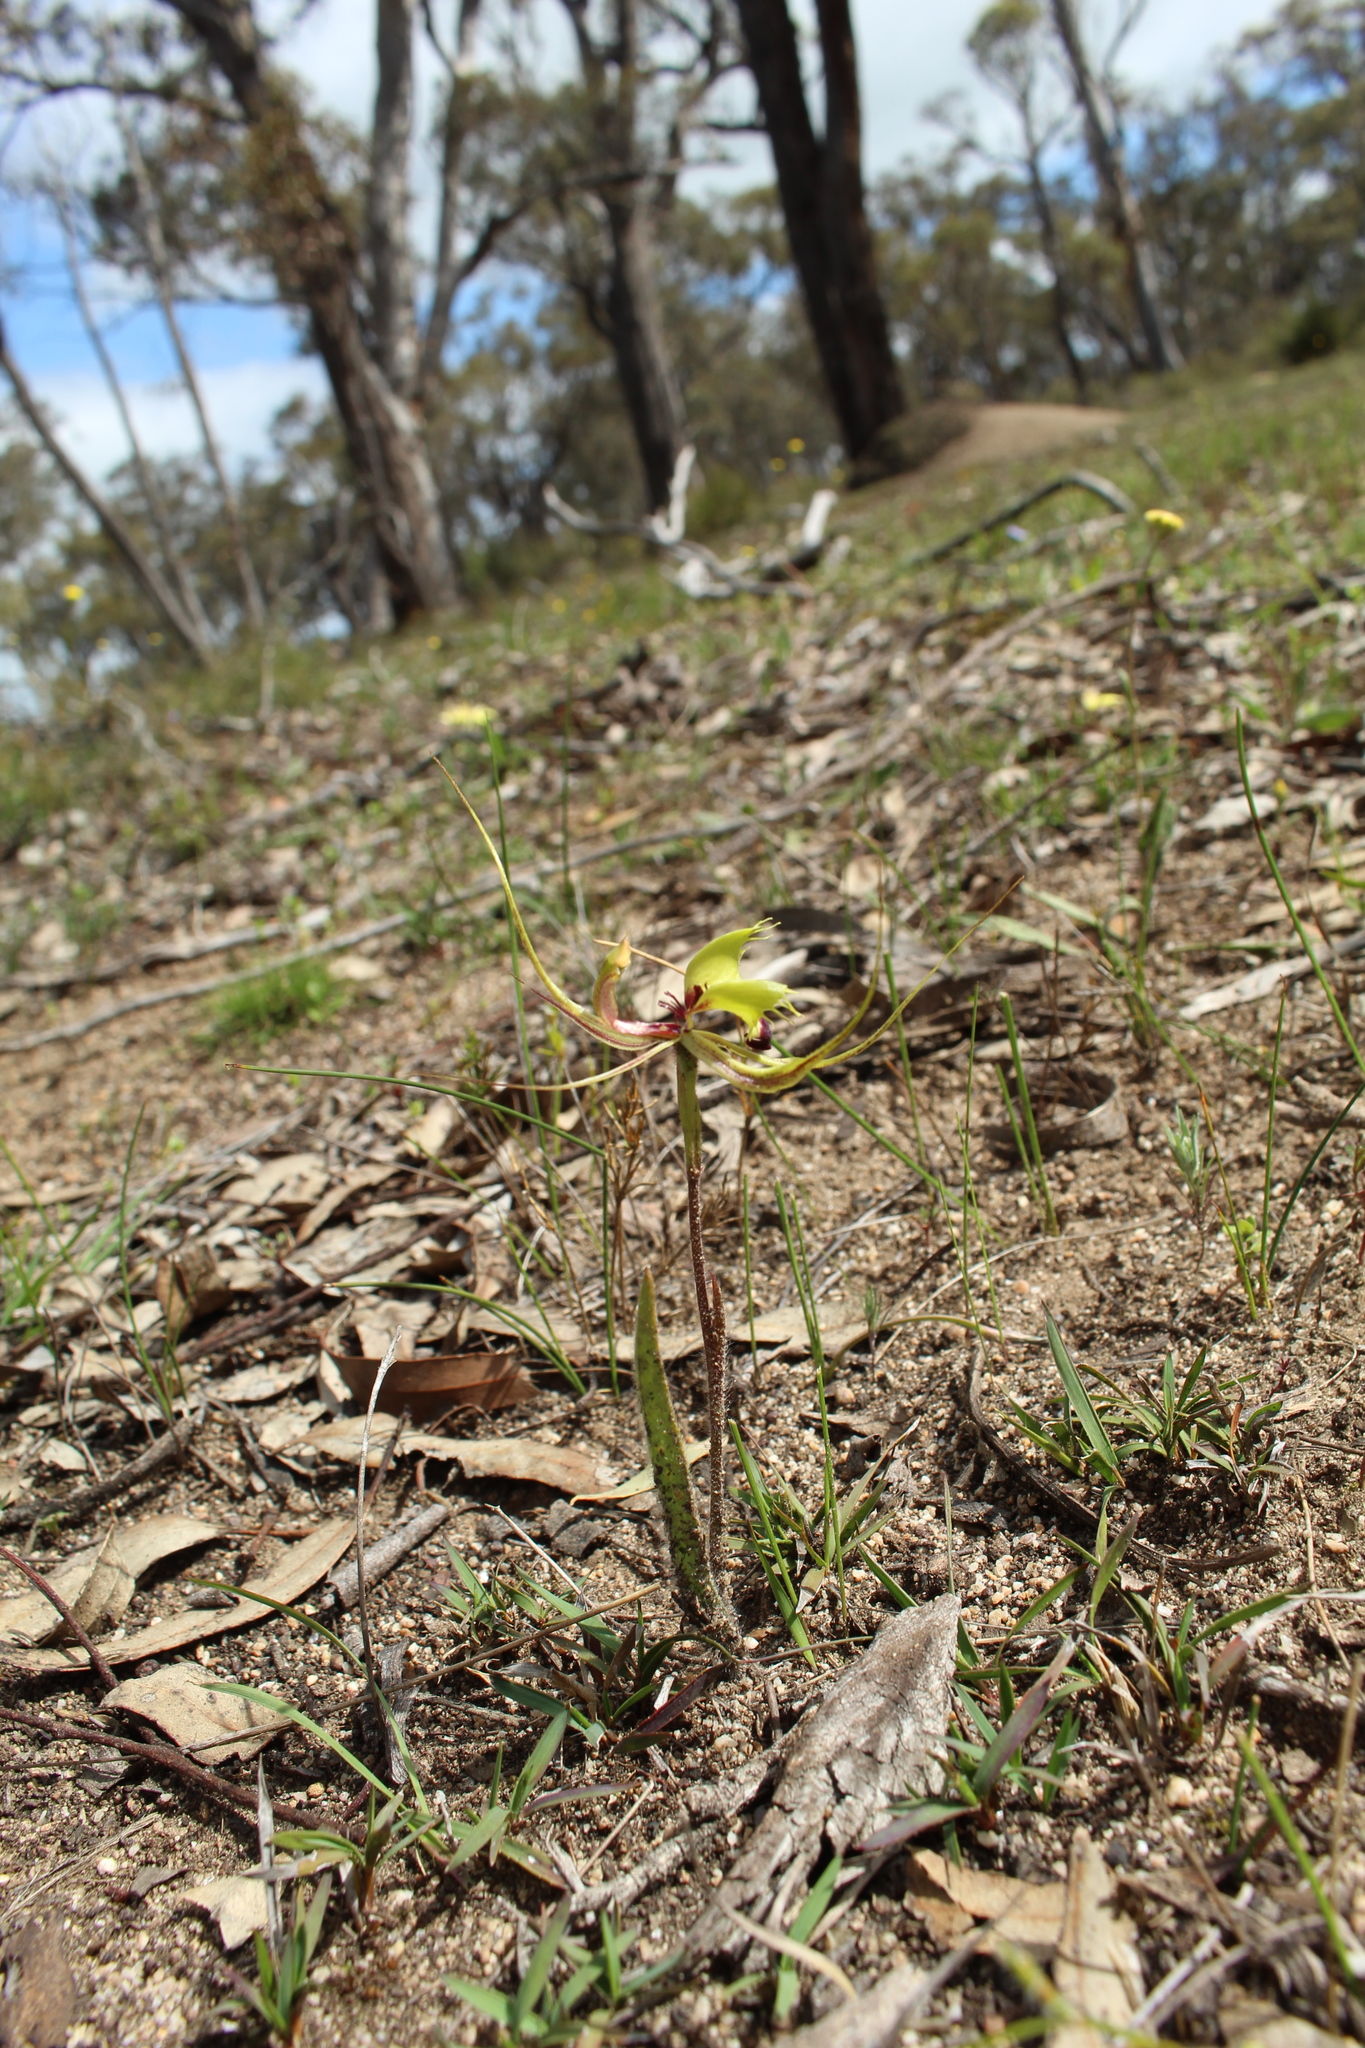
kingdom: Plantae
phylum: Tracheophyta
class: Liliopsida
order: Asparagales
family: Orchidaceae
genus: Caladenia
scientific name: Caladenia falcata
